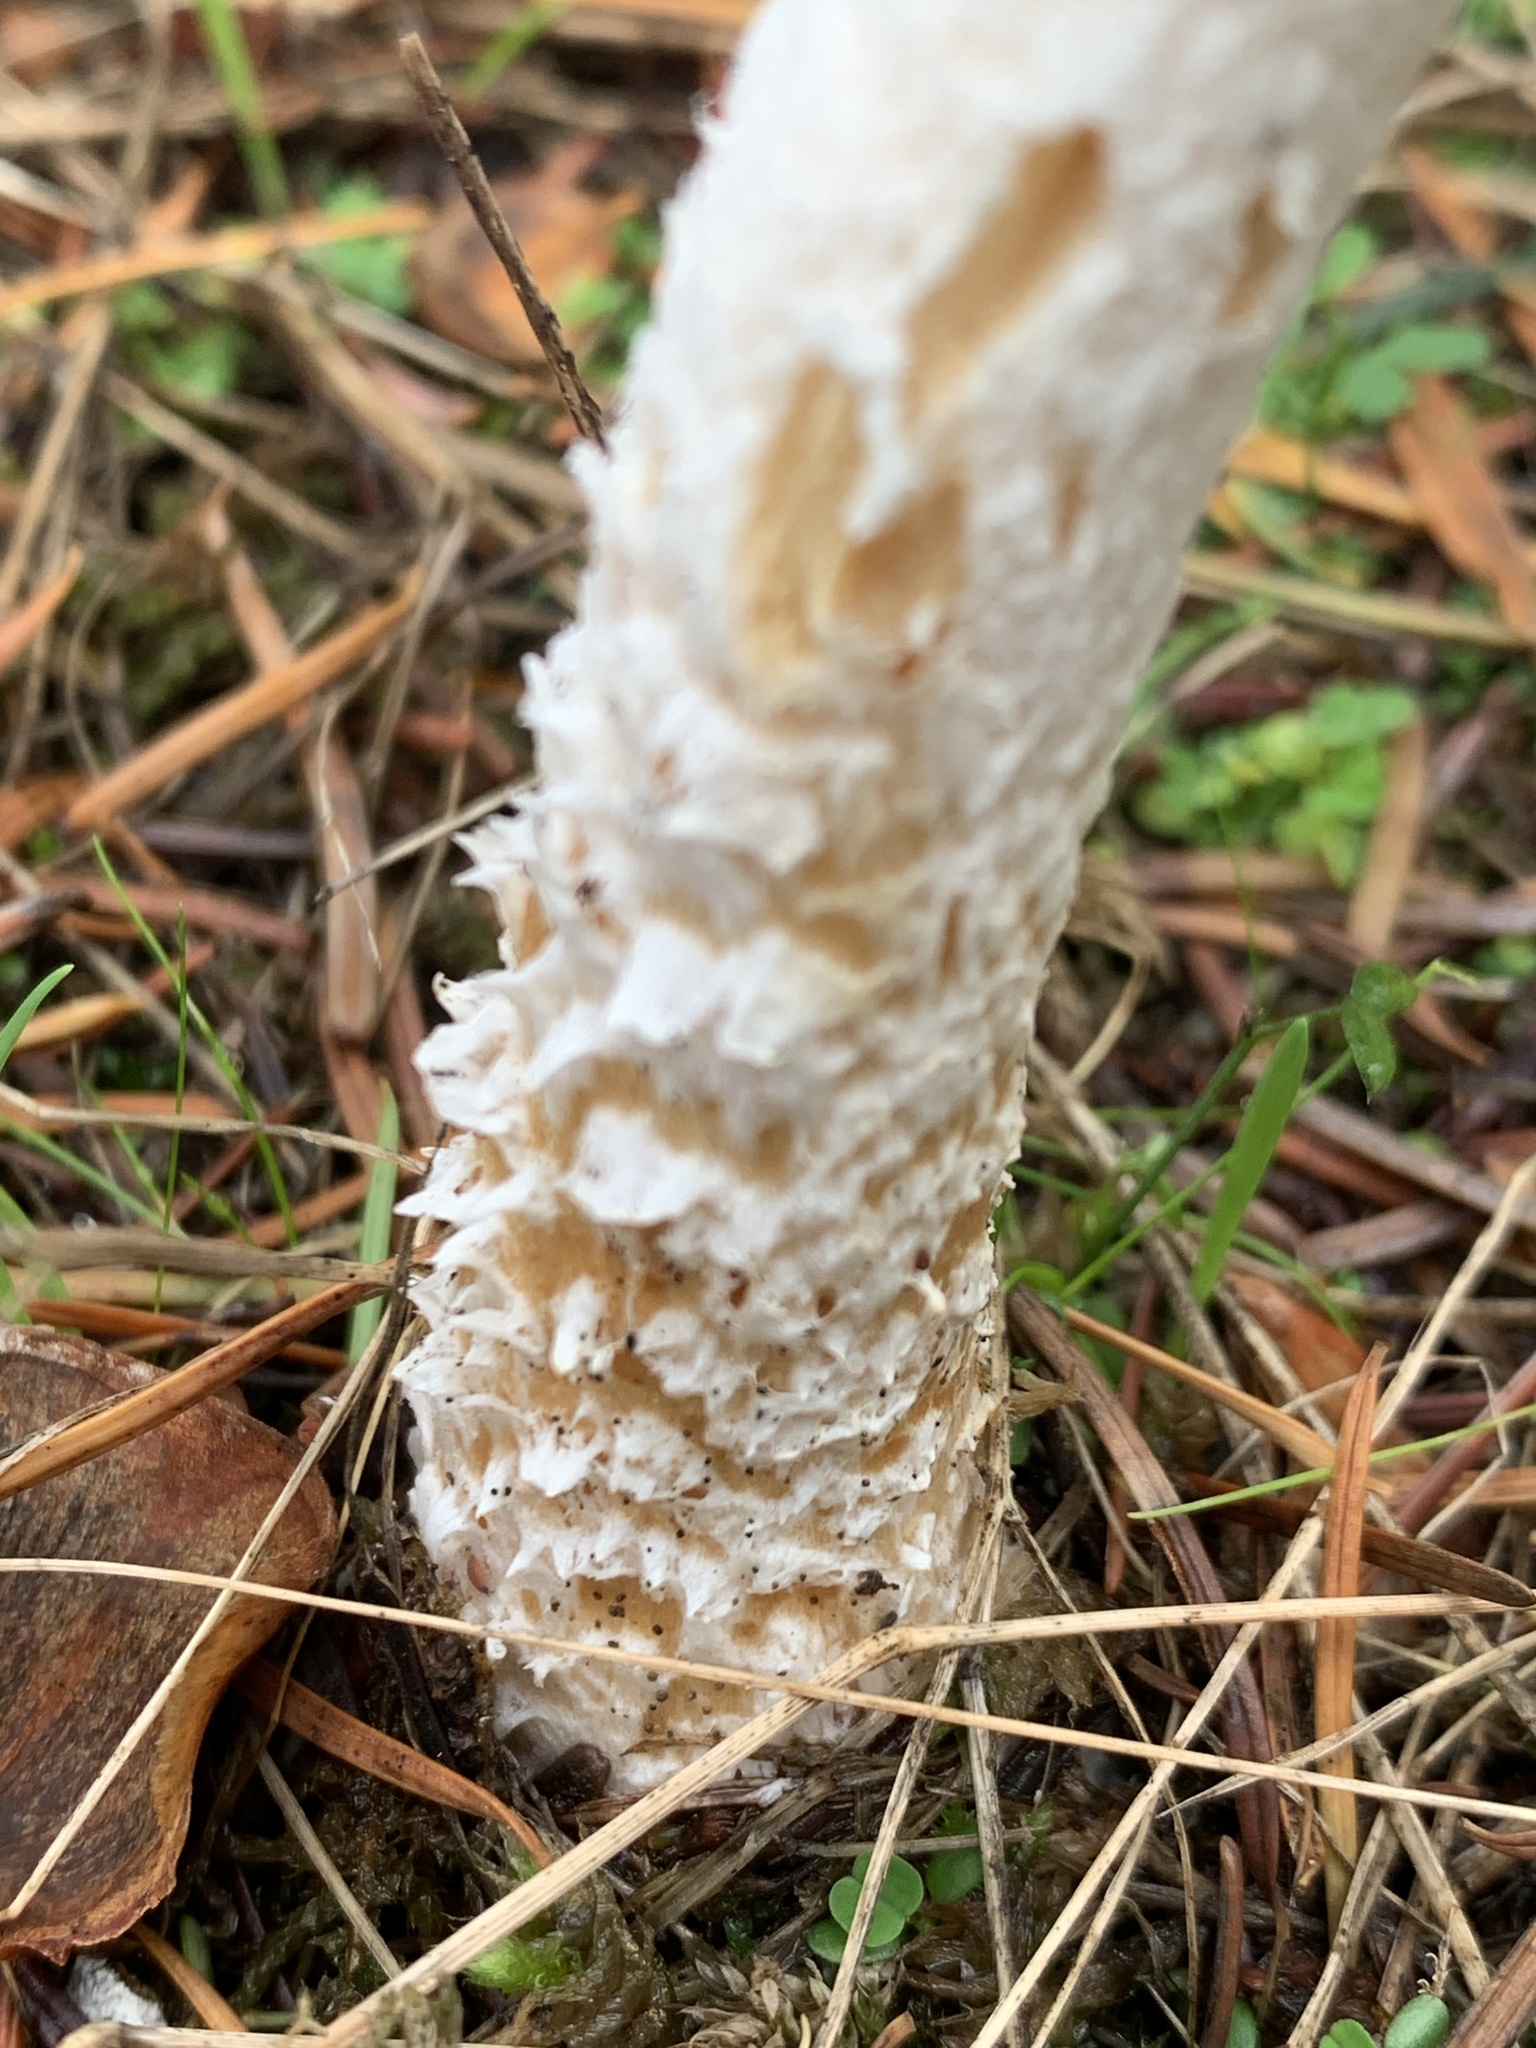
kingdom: Fungi
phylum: Basidiomycota
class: Agaricomycetes
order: Agaricales
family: Strophariaceae
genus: Stropharia
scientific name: Stropharia ambigua
